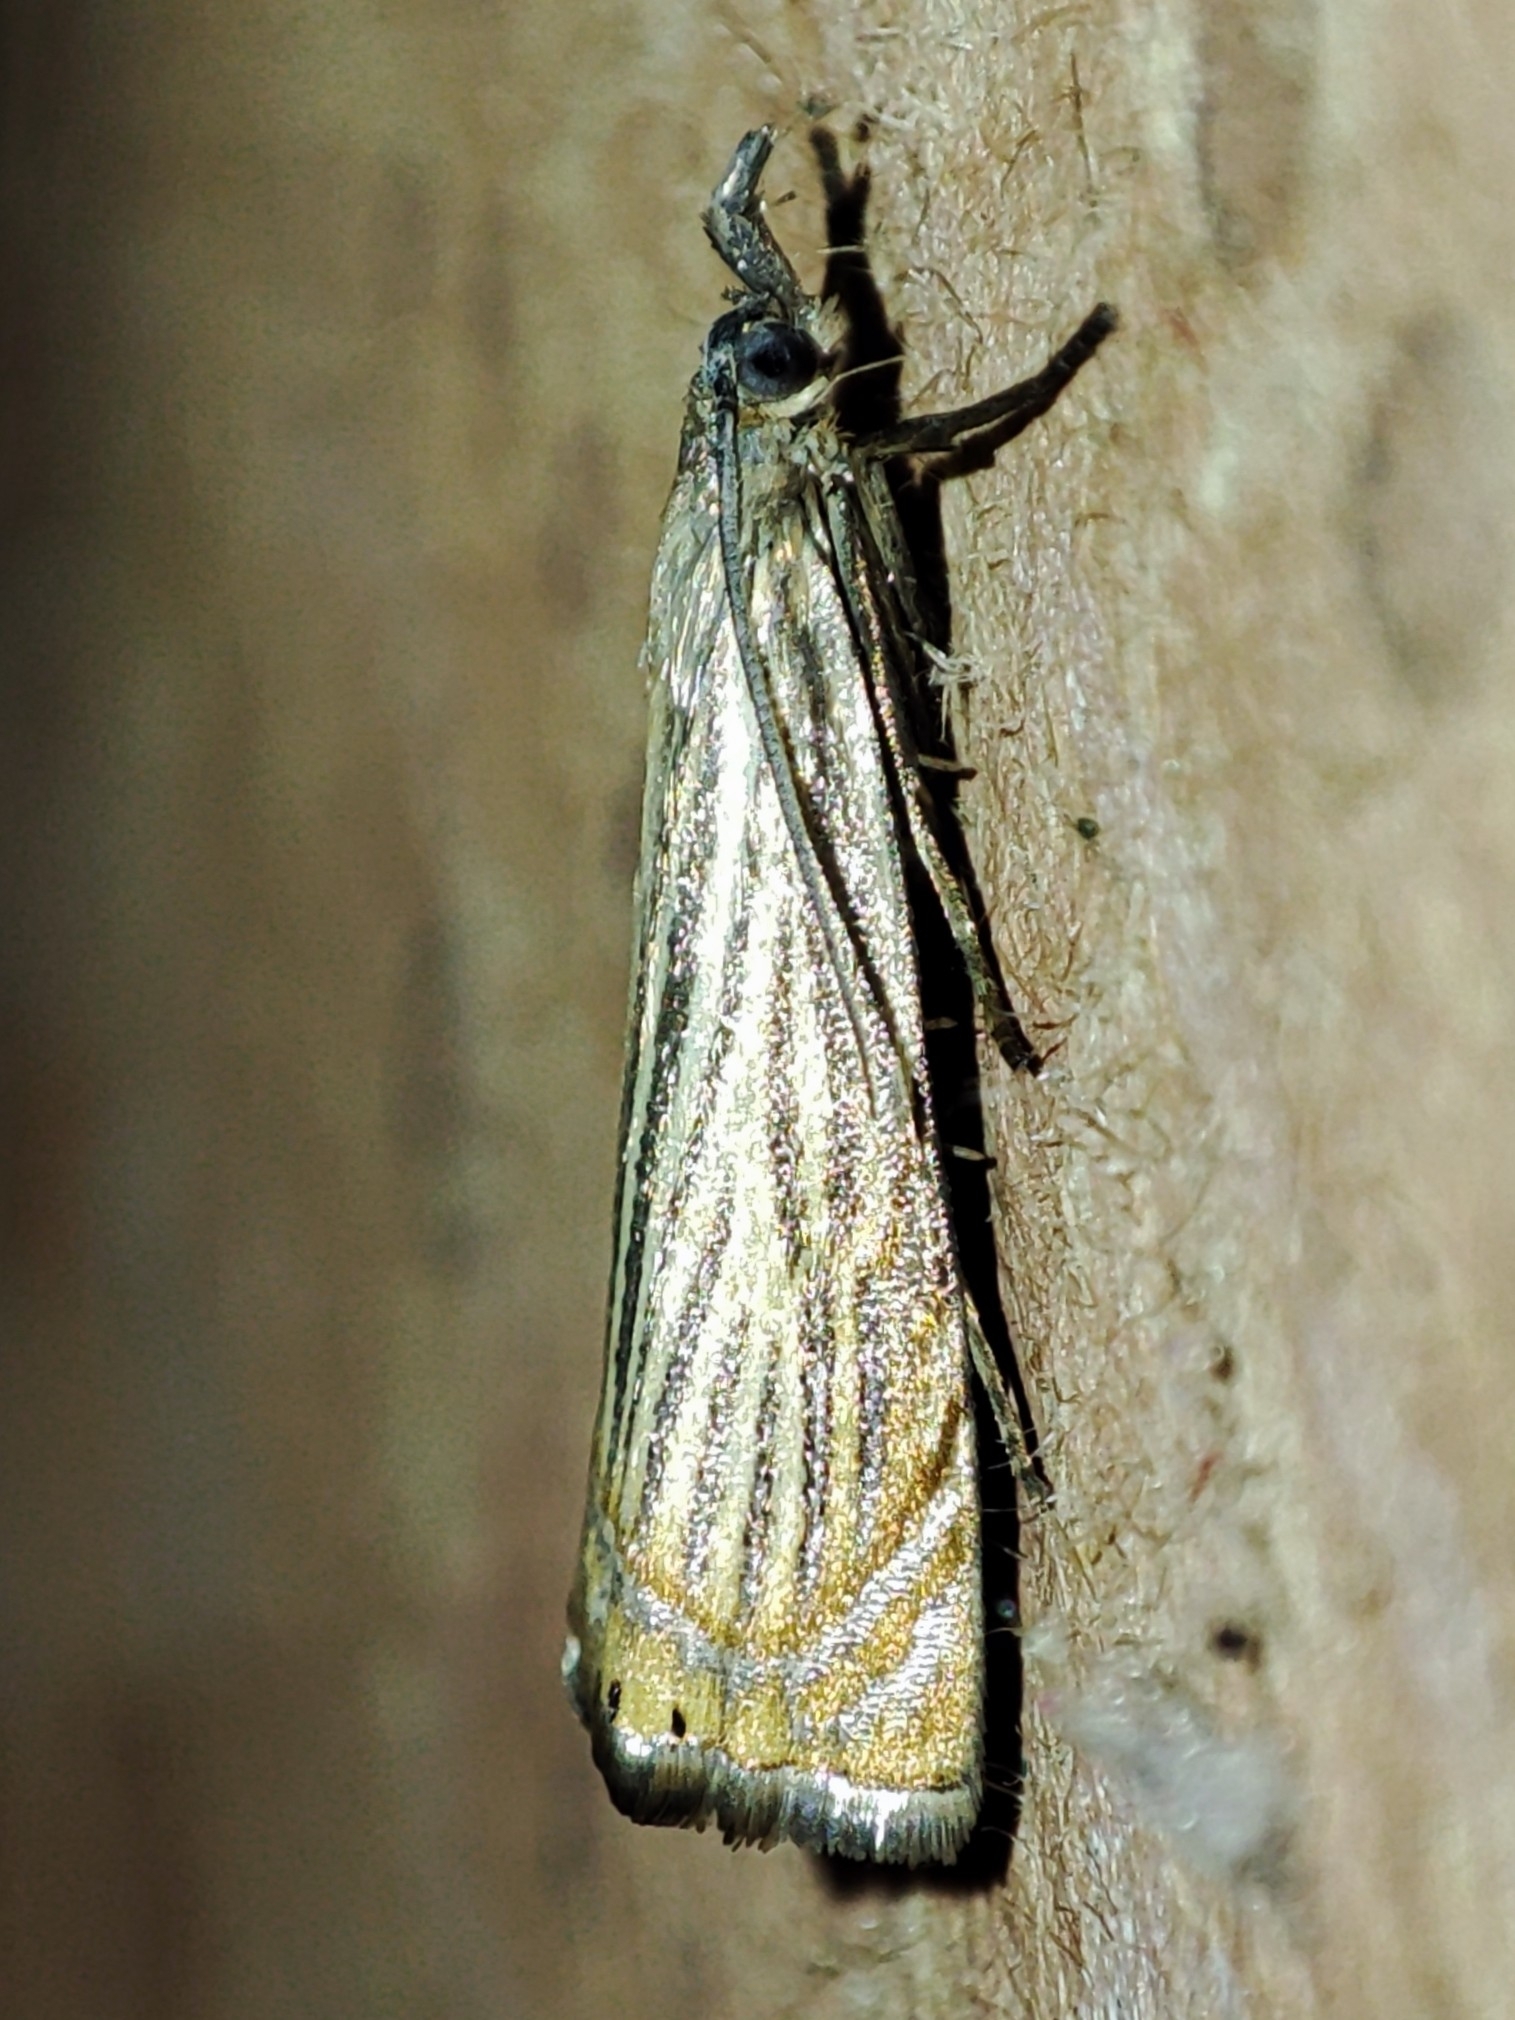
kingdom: Animalia
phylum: Arthropoda
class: Insecta
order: Lepidoptera
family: Crambidae
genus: Chrysoteuchia
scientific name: Chrysoteuchia culmella
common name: Garden grass-veneer
